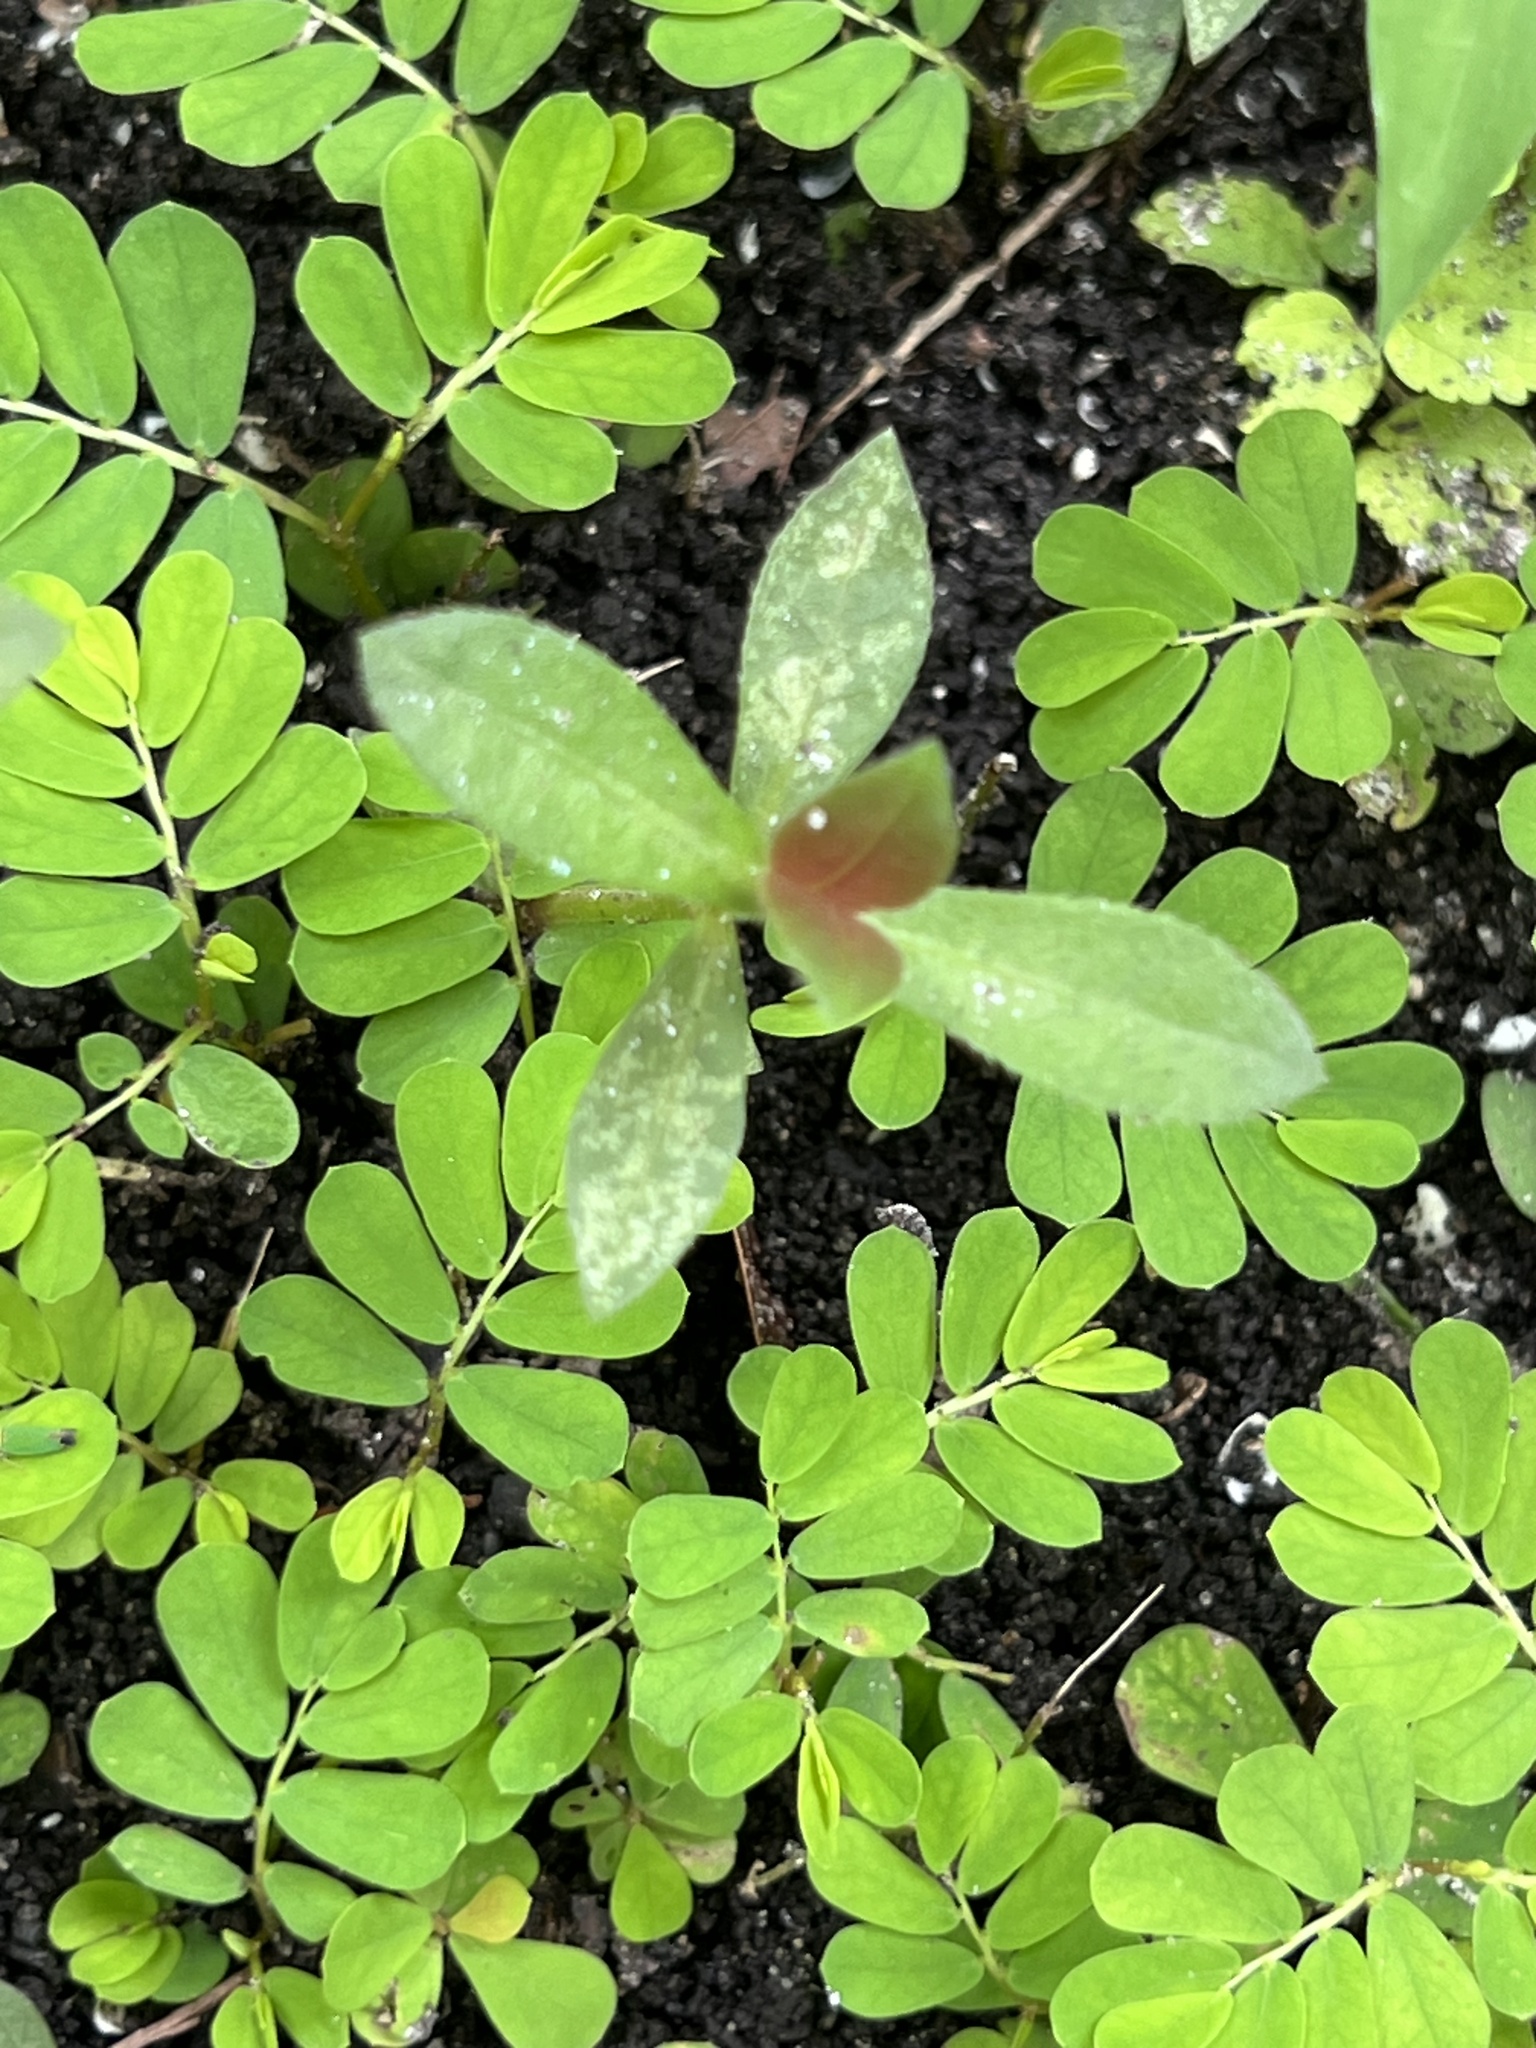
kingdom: Plantae
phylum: Tracheophyta
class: Magnoliopsida
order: Malpighiales
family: Phyllanthaceae
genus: Phyllanthus
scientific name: Phyllanthus urinaria
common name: Chamber bitter
